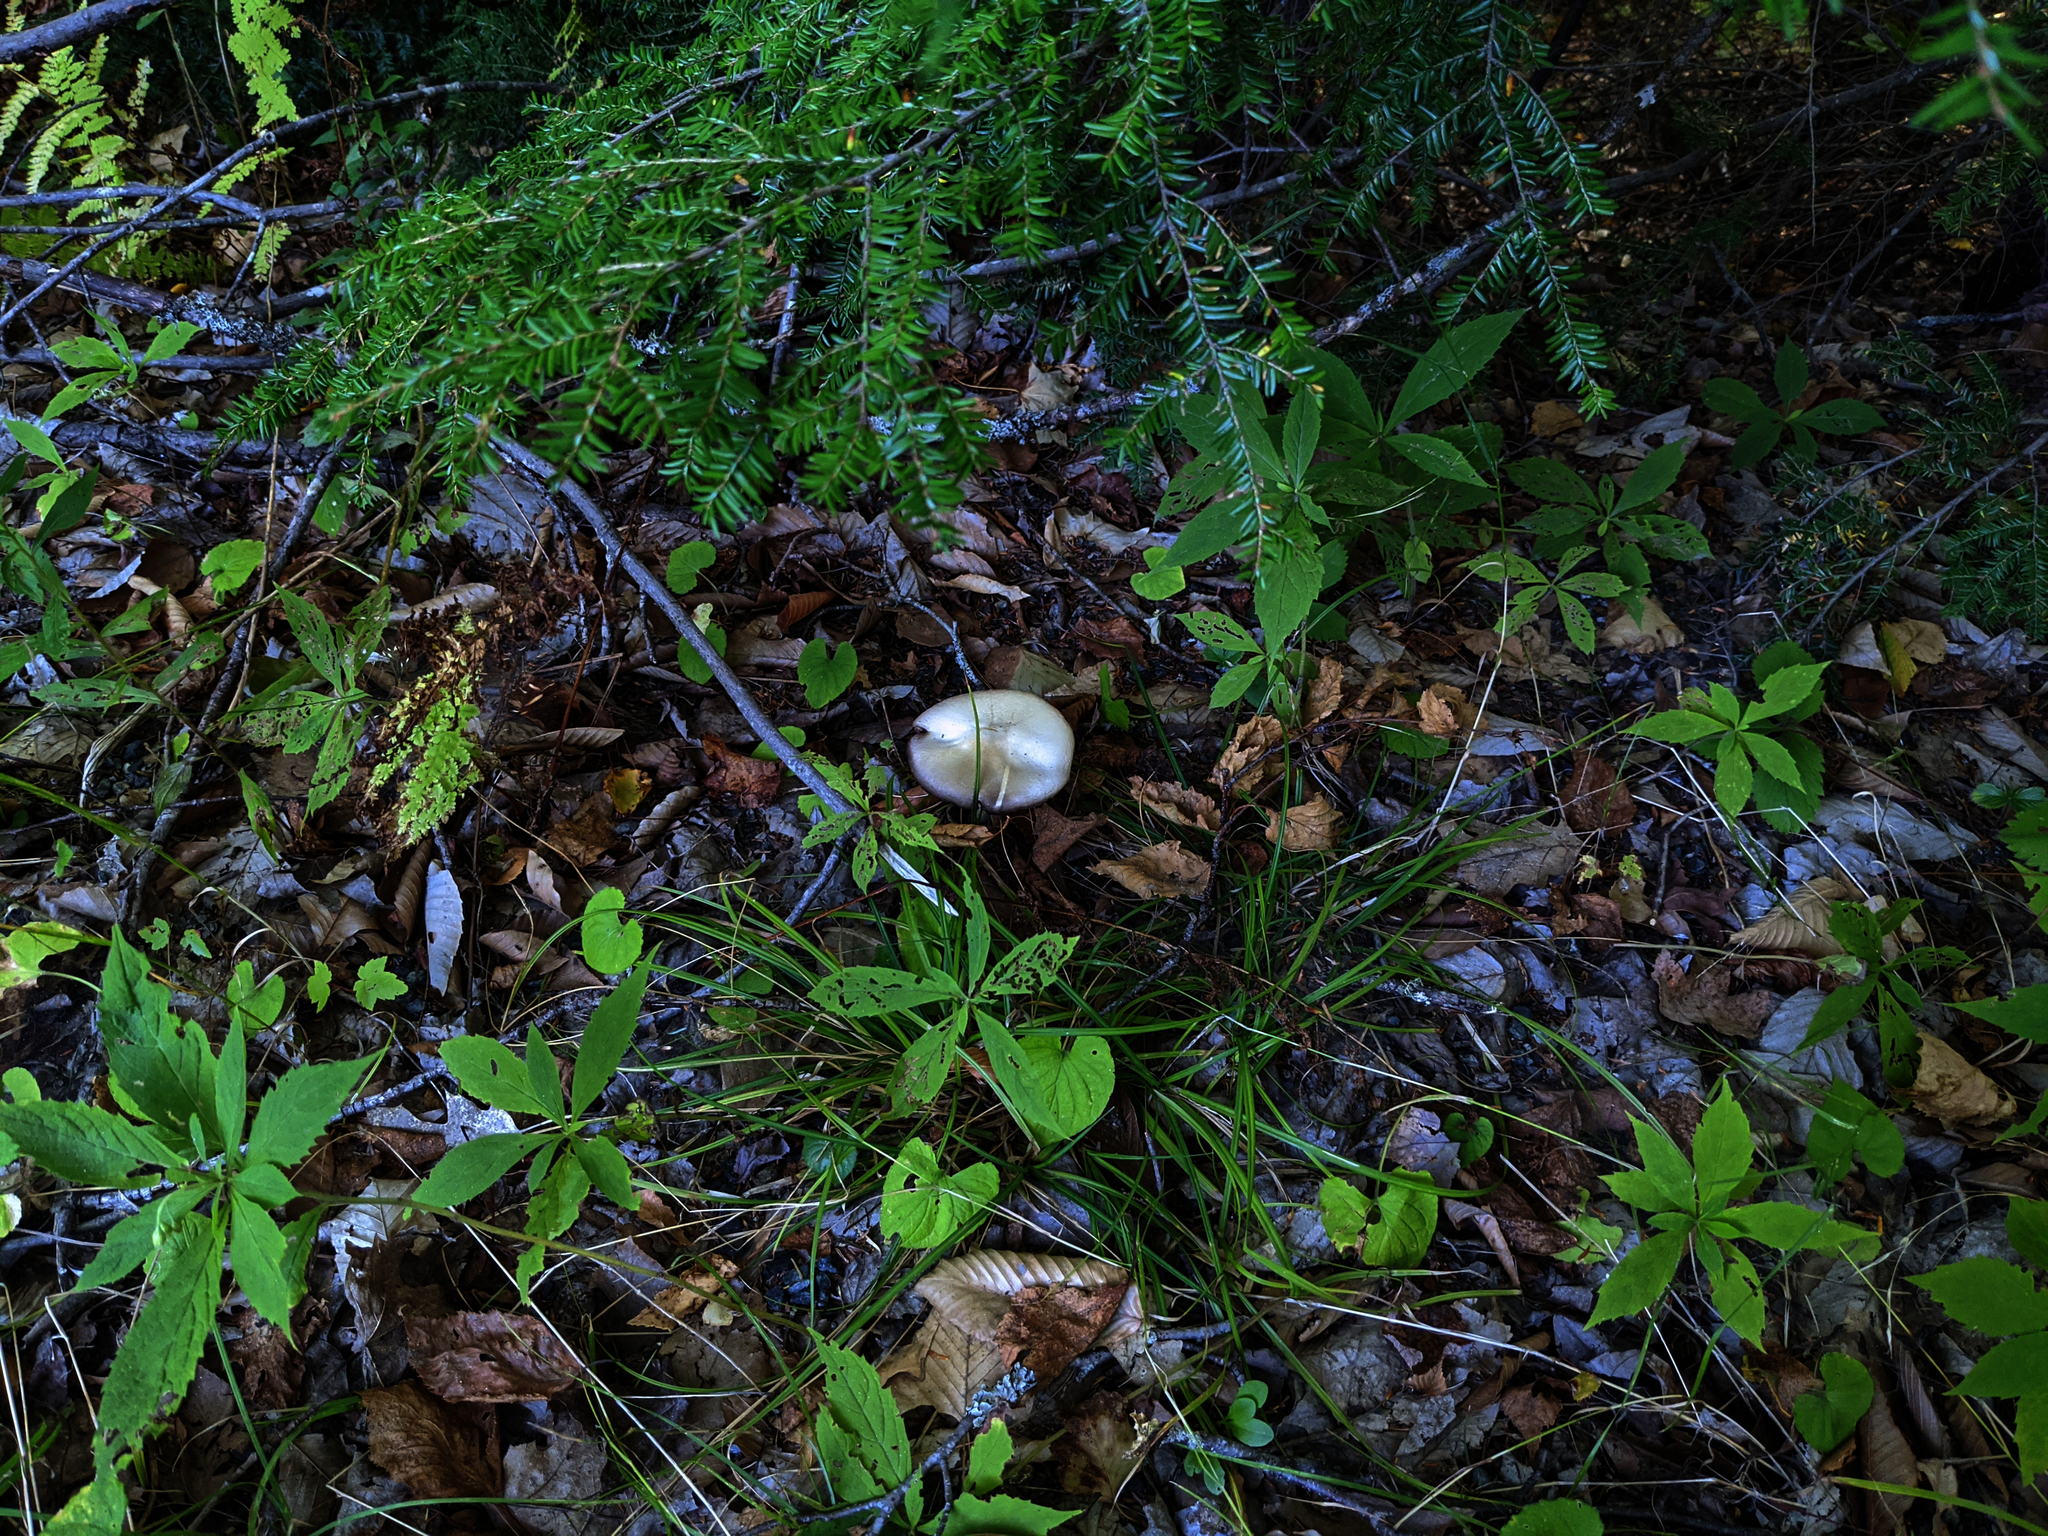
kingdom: Plantae
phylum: Tracheophyta
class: Magnoliopsida
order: Asterales
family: Asteraceae
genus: Oclemena
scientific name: Oclemena acuminata
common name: Mountain aster
